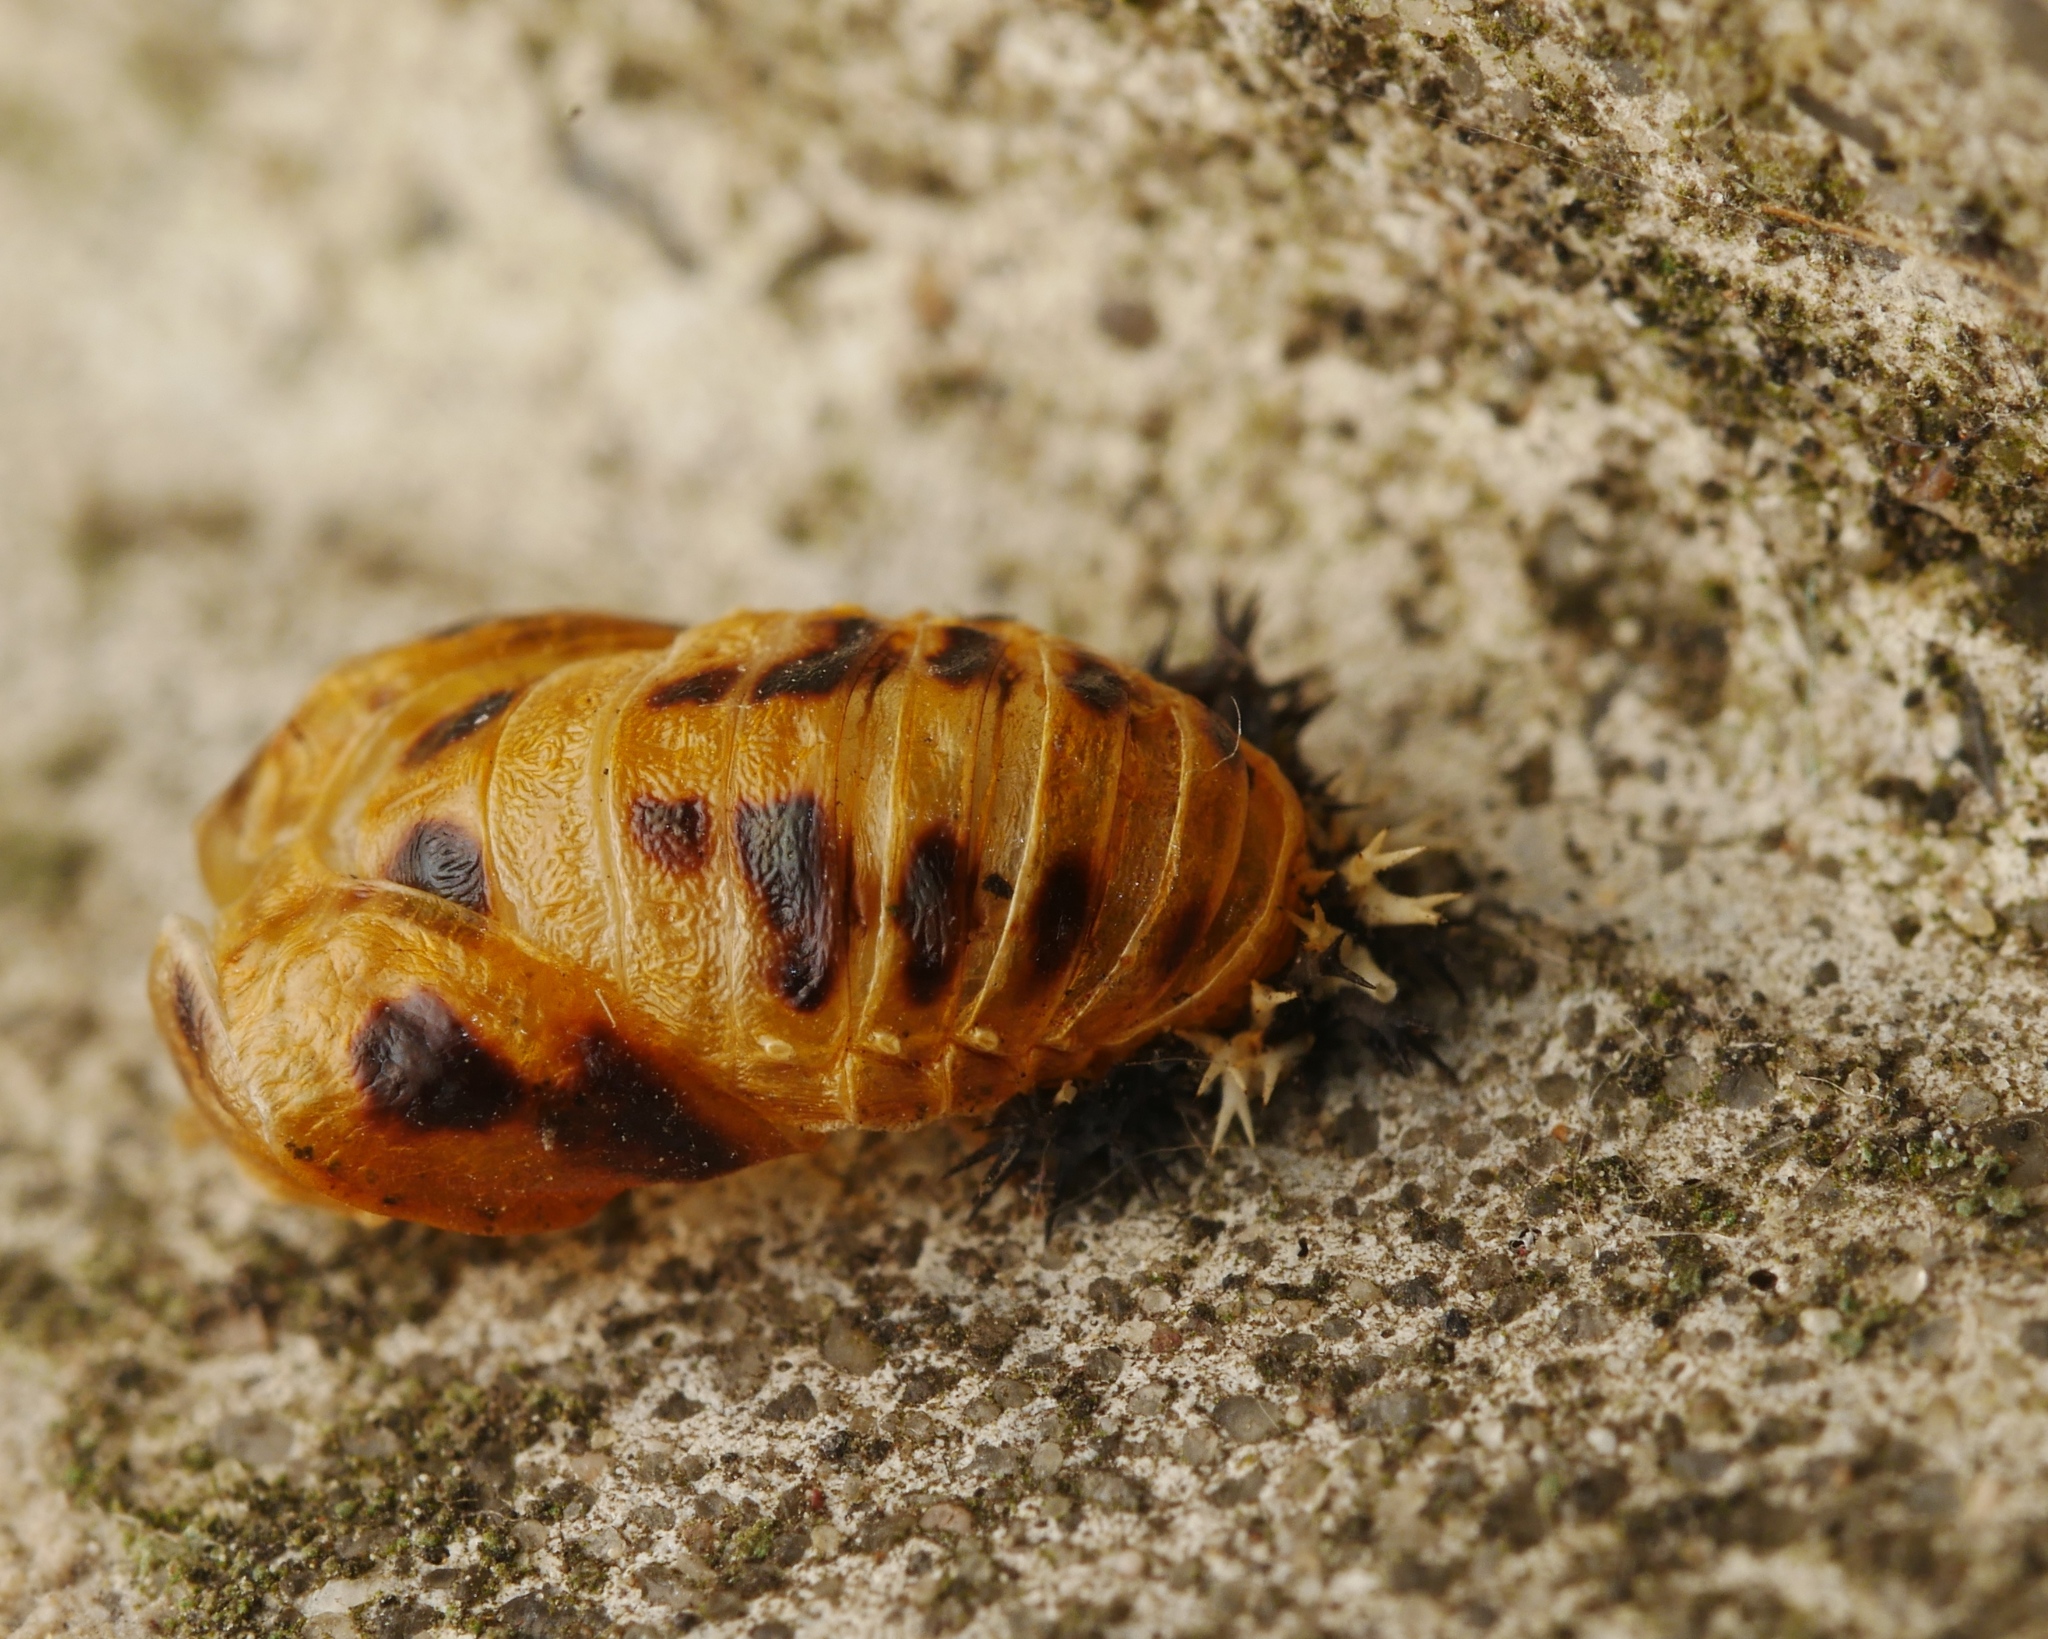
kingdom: Animalia
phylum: Arthropoda
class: Insecta
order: Coleoptera
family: Coccinellidae
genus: Harmonia
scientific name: Harmonia axyridis
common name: Harlequin ladybird
